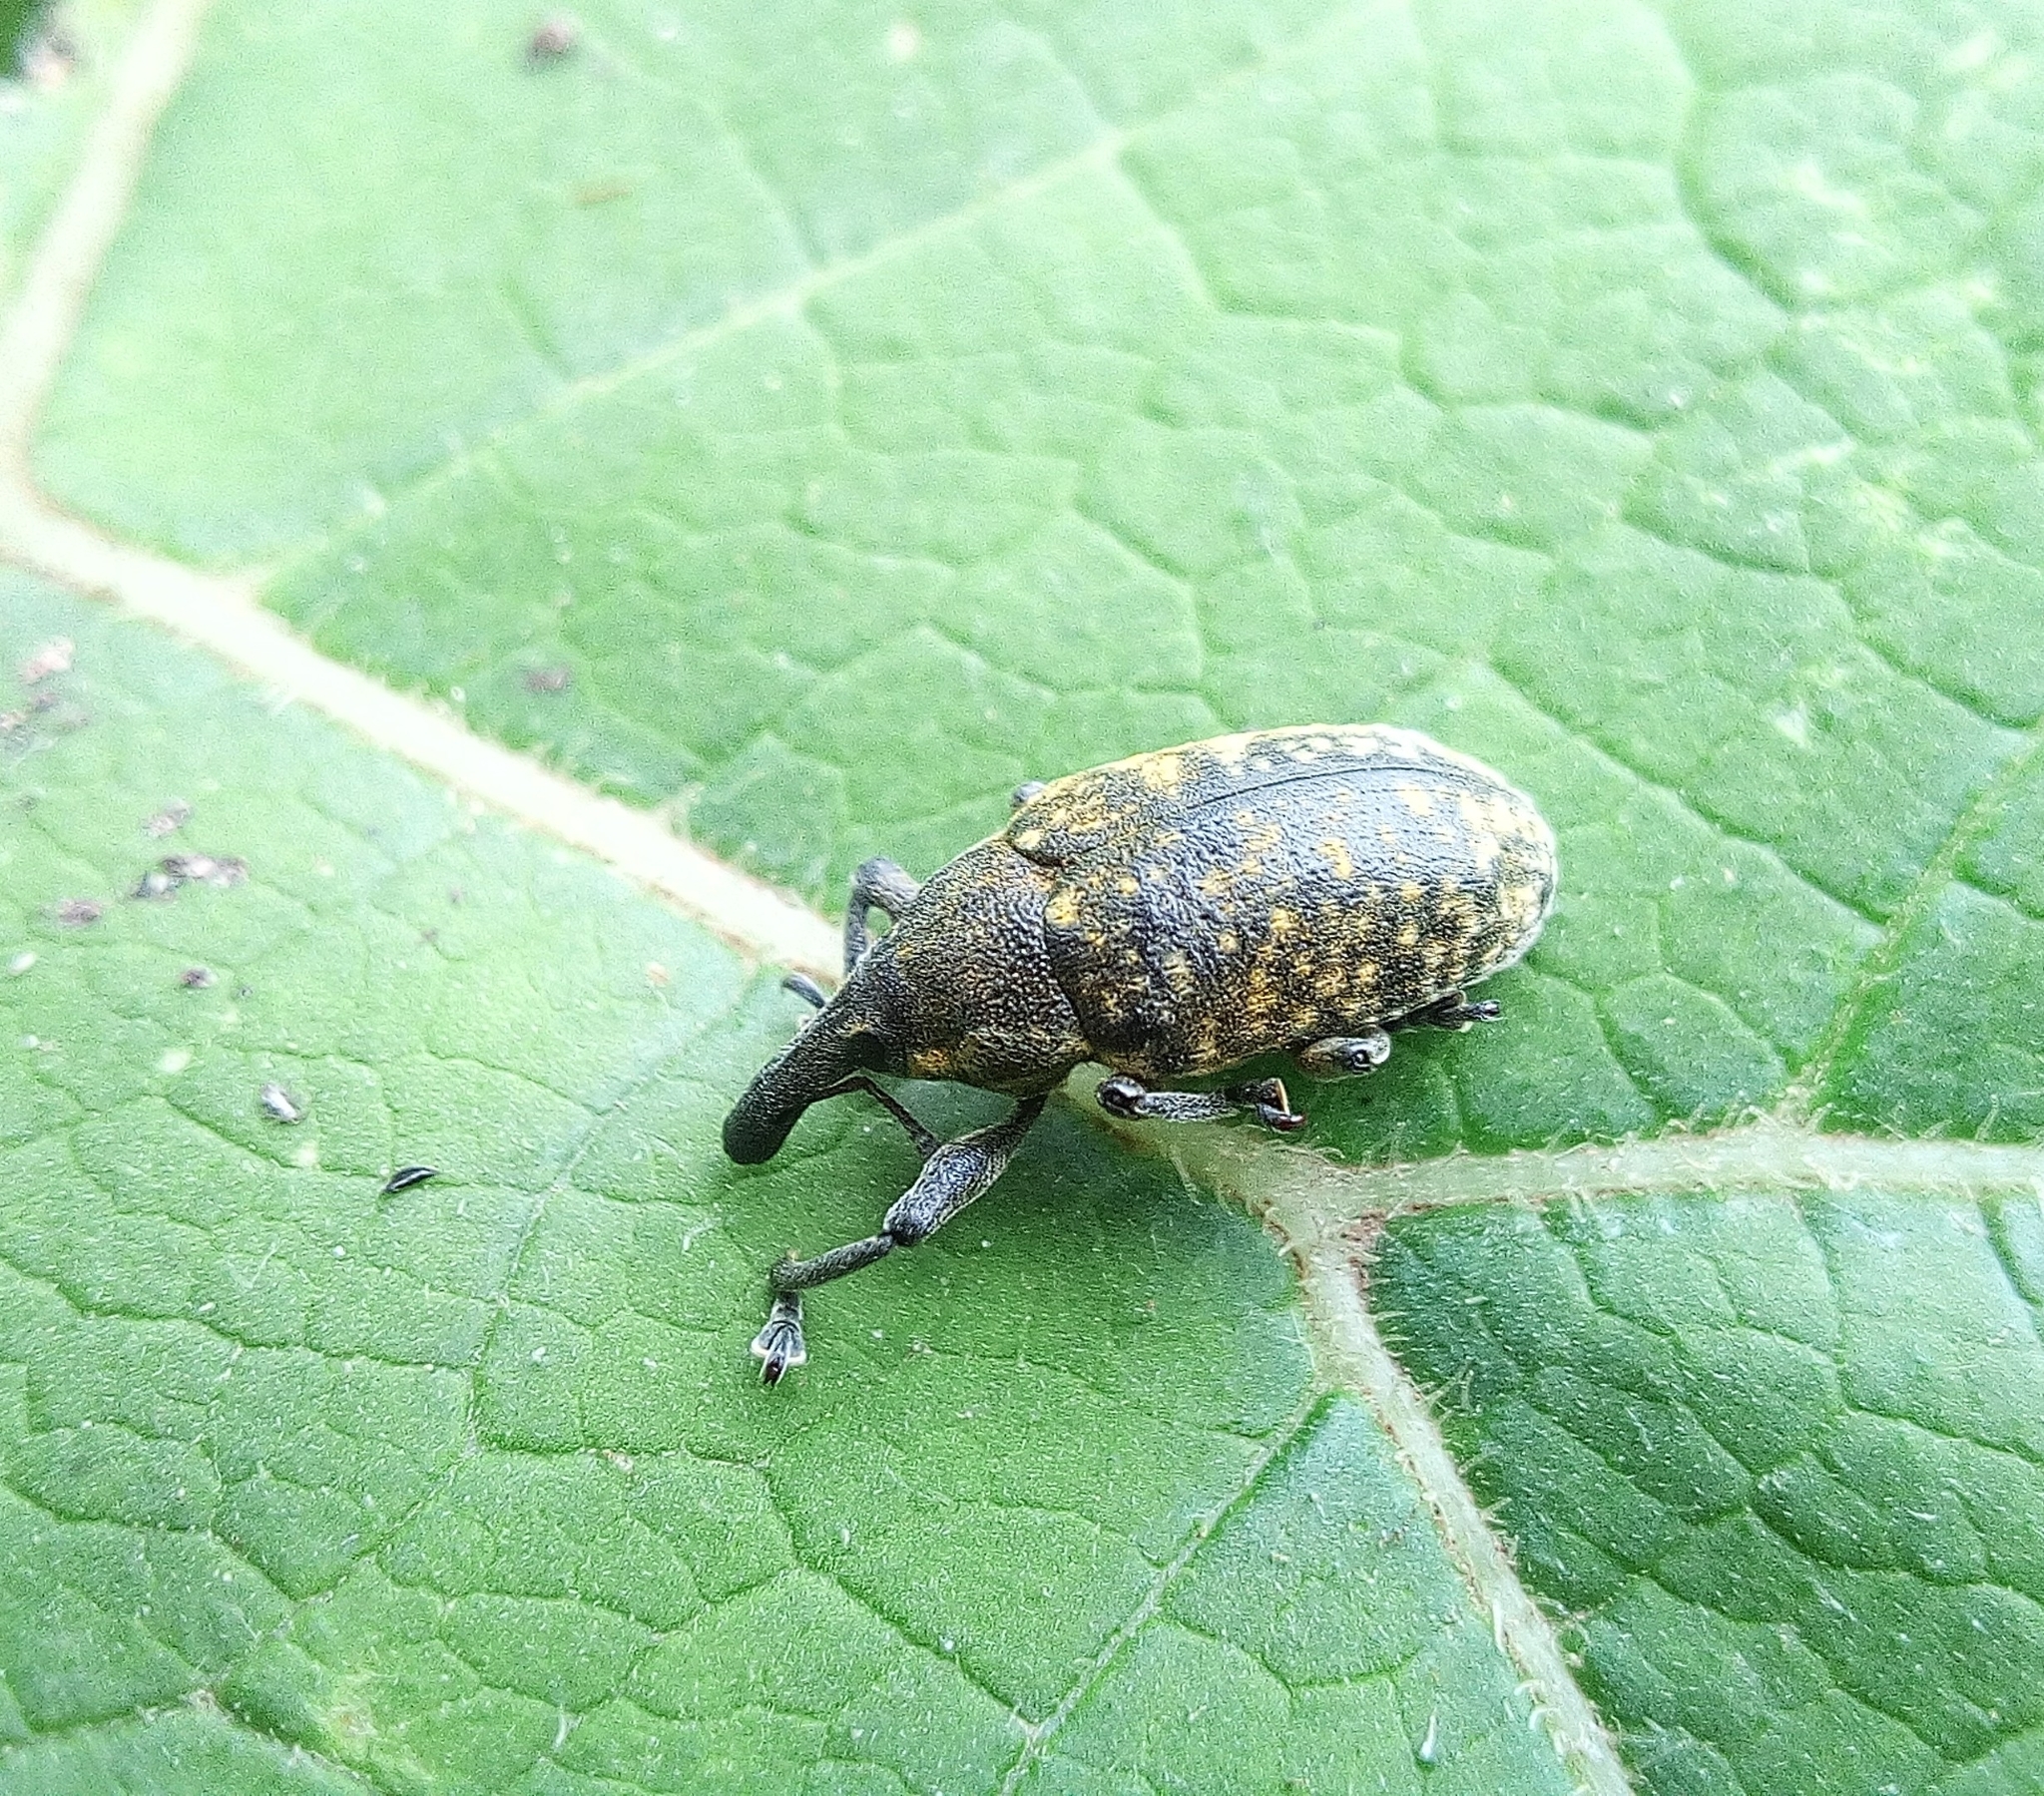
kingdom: Animalia
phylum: Arthropoda
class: Insecta
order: Coleoptera
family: Curculionidae
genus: Larinus
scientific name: Larinus sturnus
